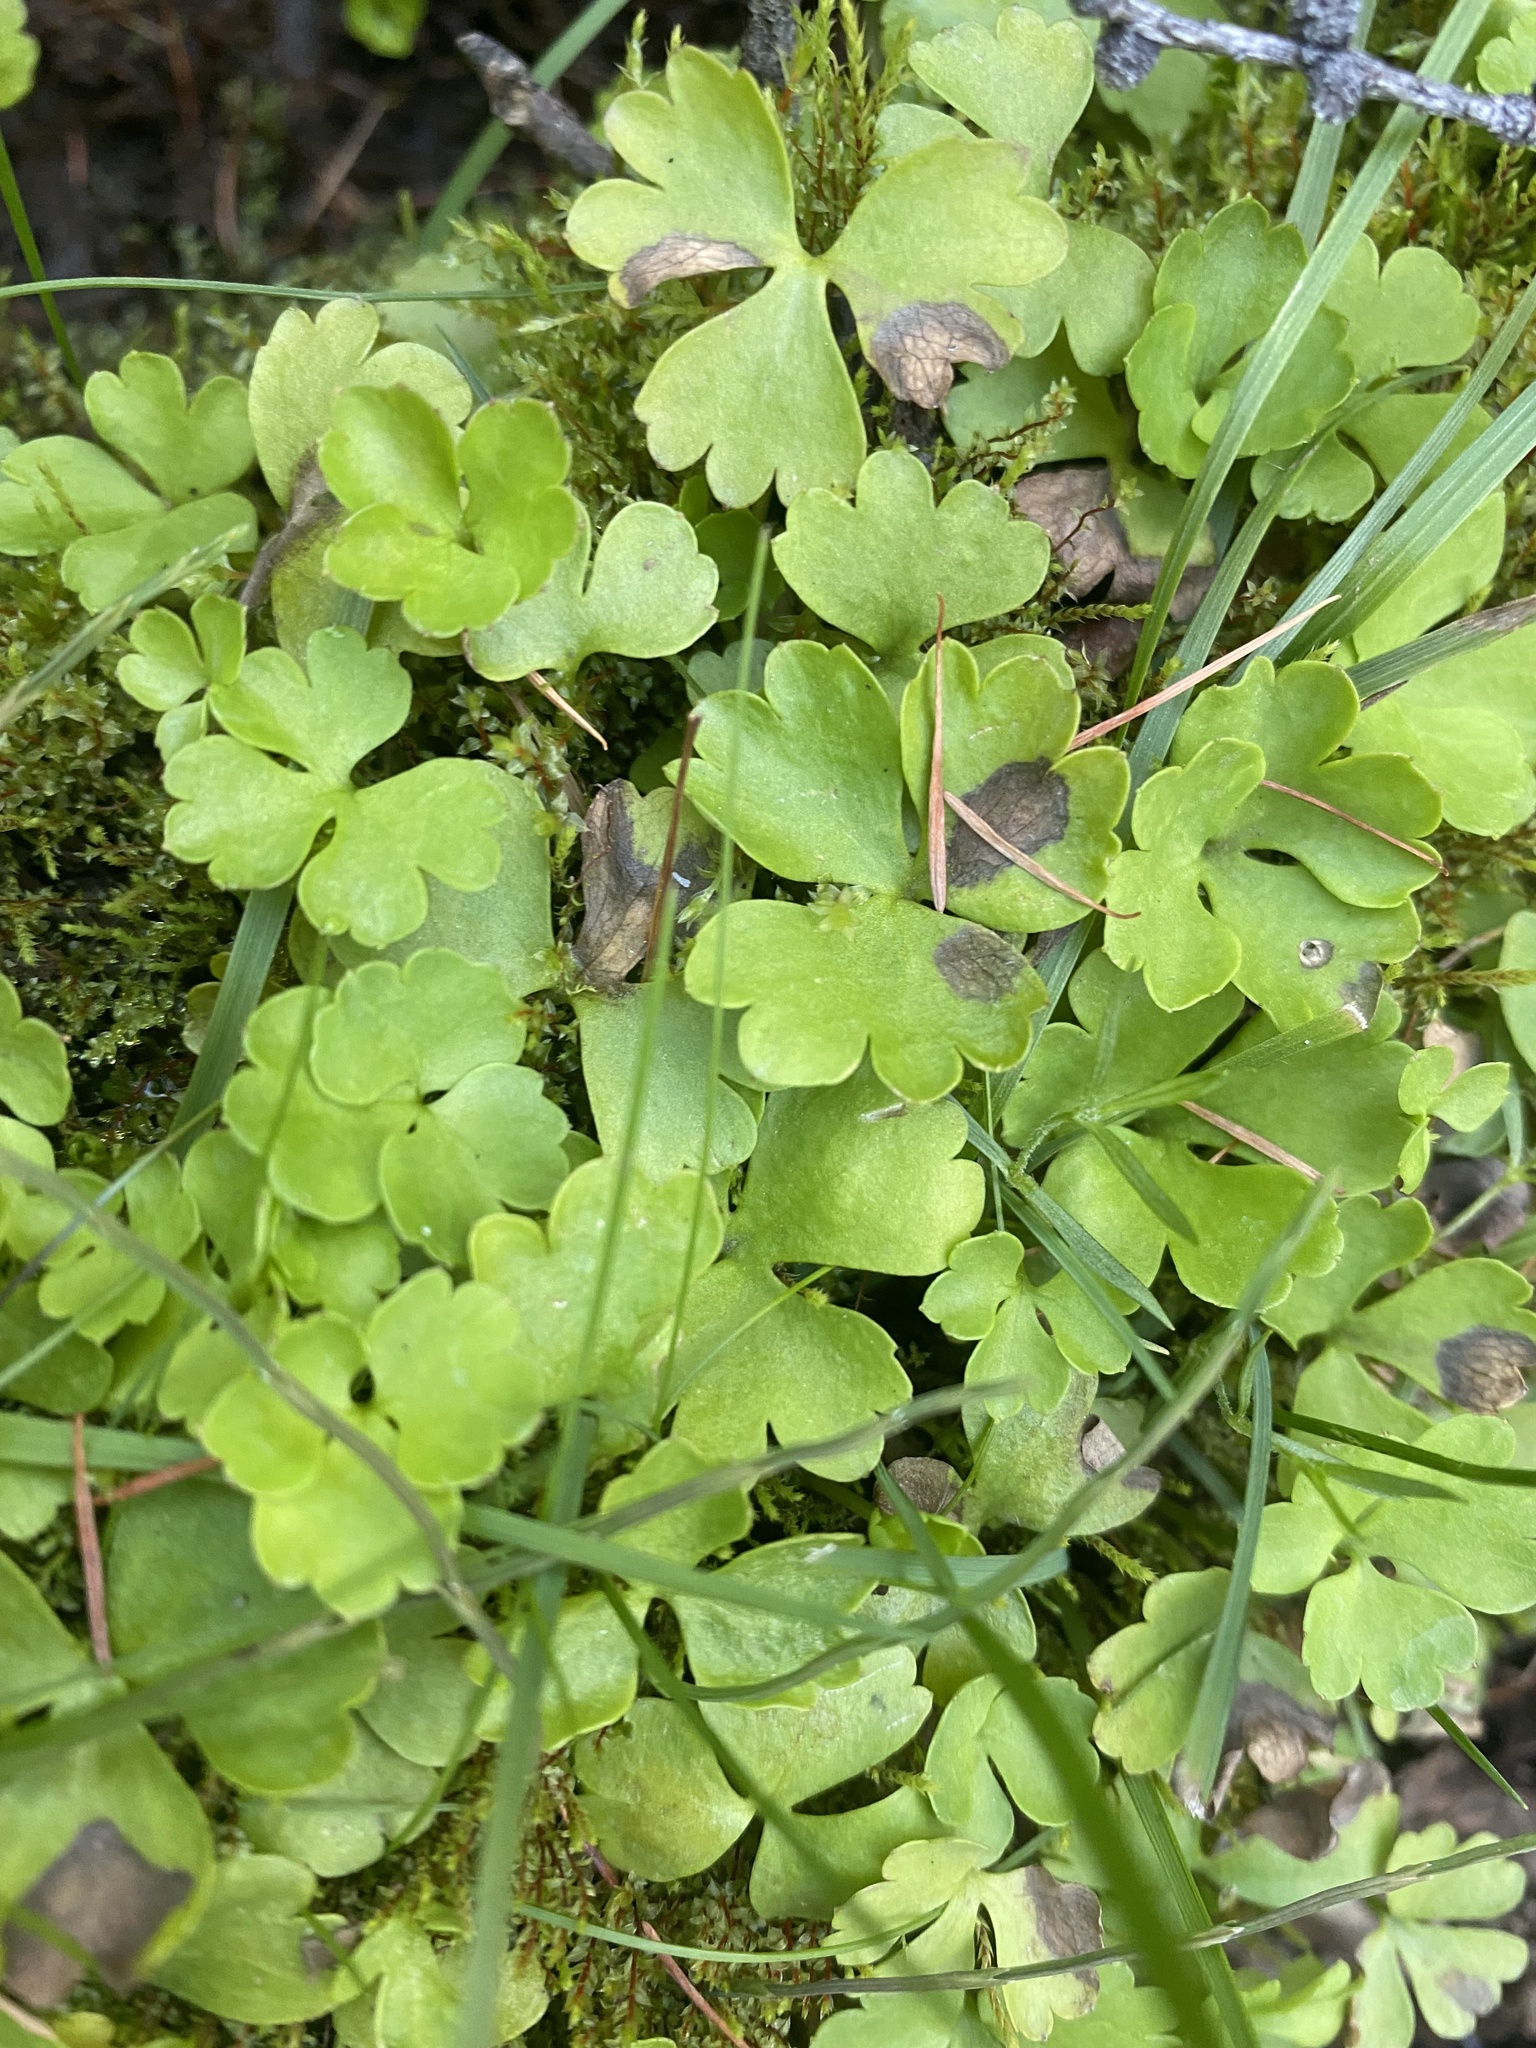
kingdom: Plantae
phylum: Tracheophyta
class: Magnoliopsida
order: Ranunculales
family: Ranunculaceae
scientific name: Ranunculaceae
